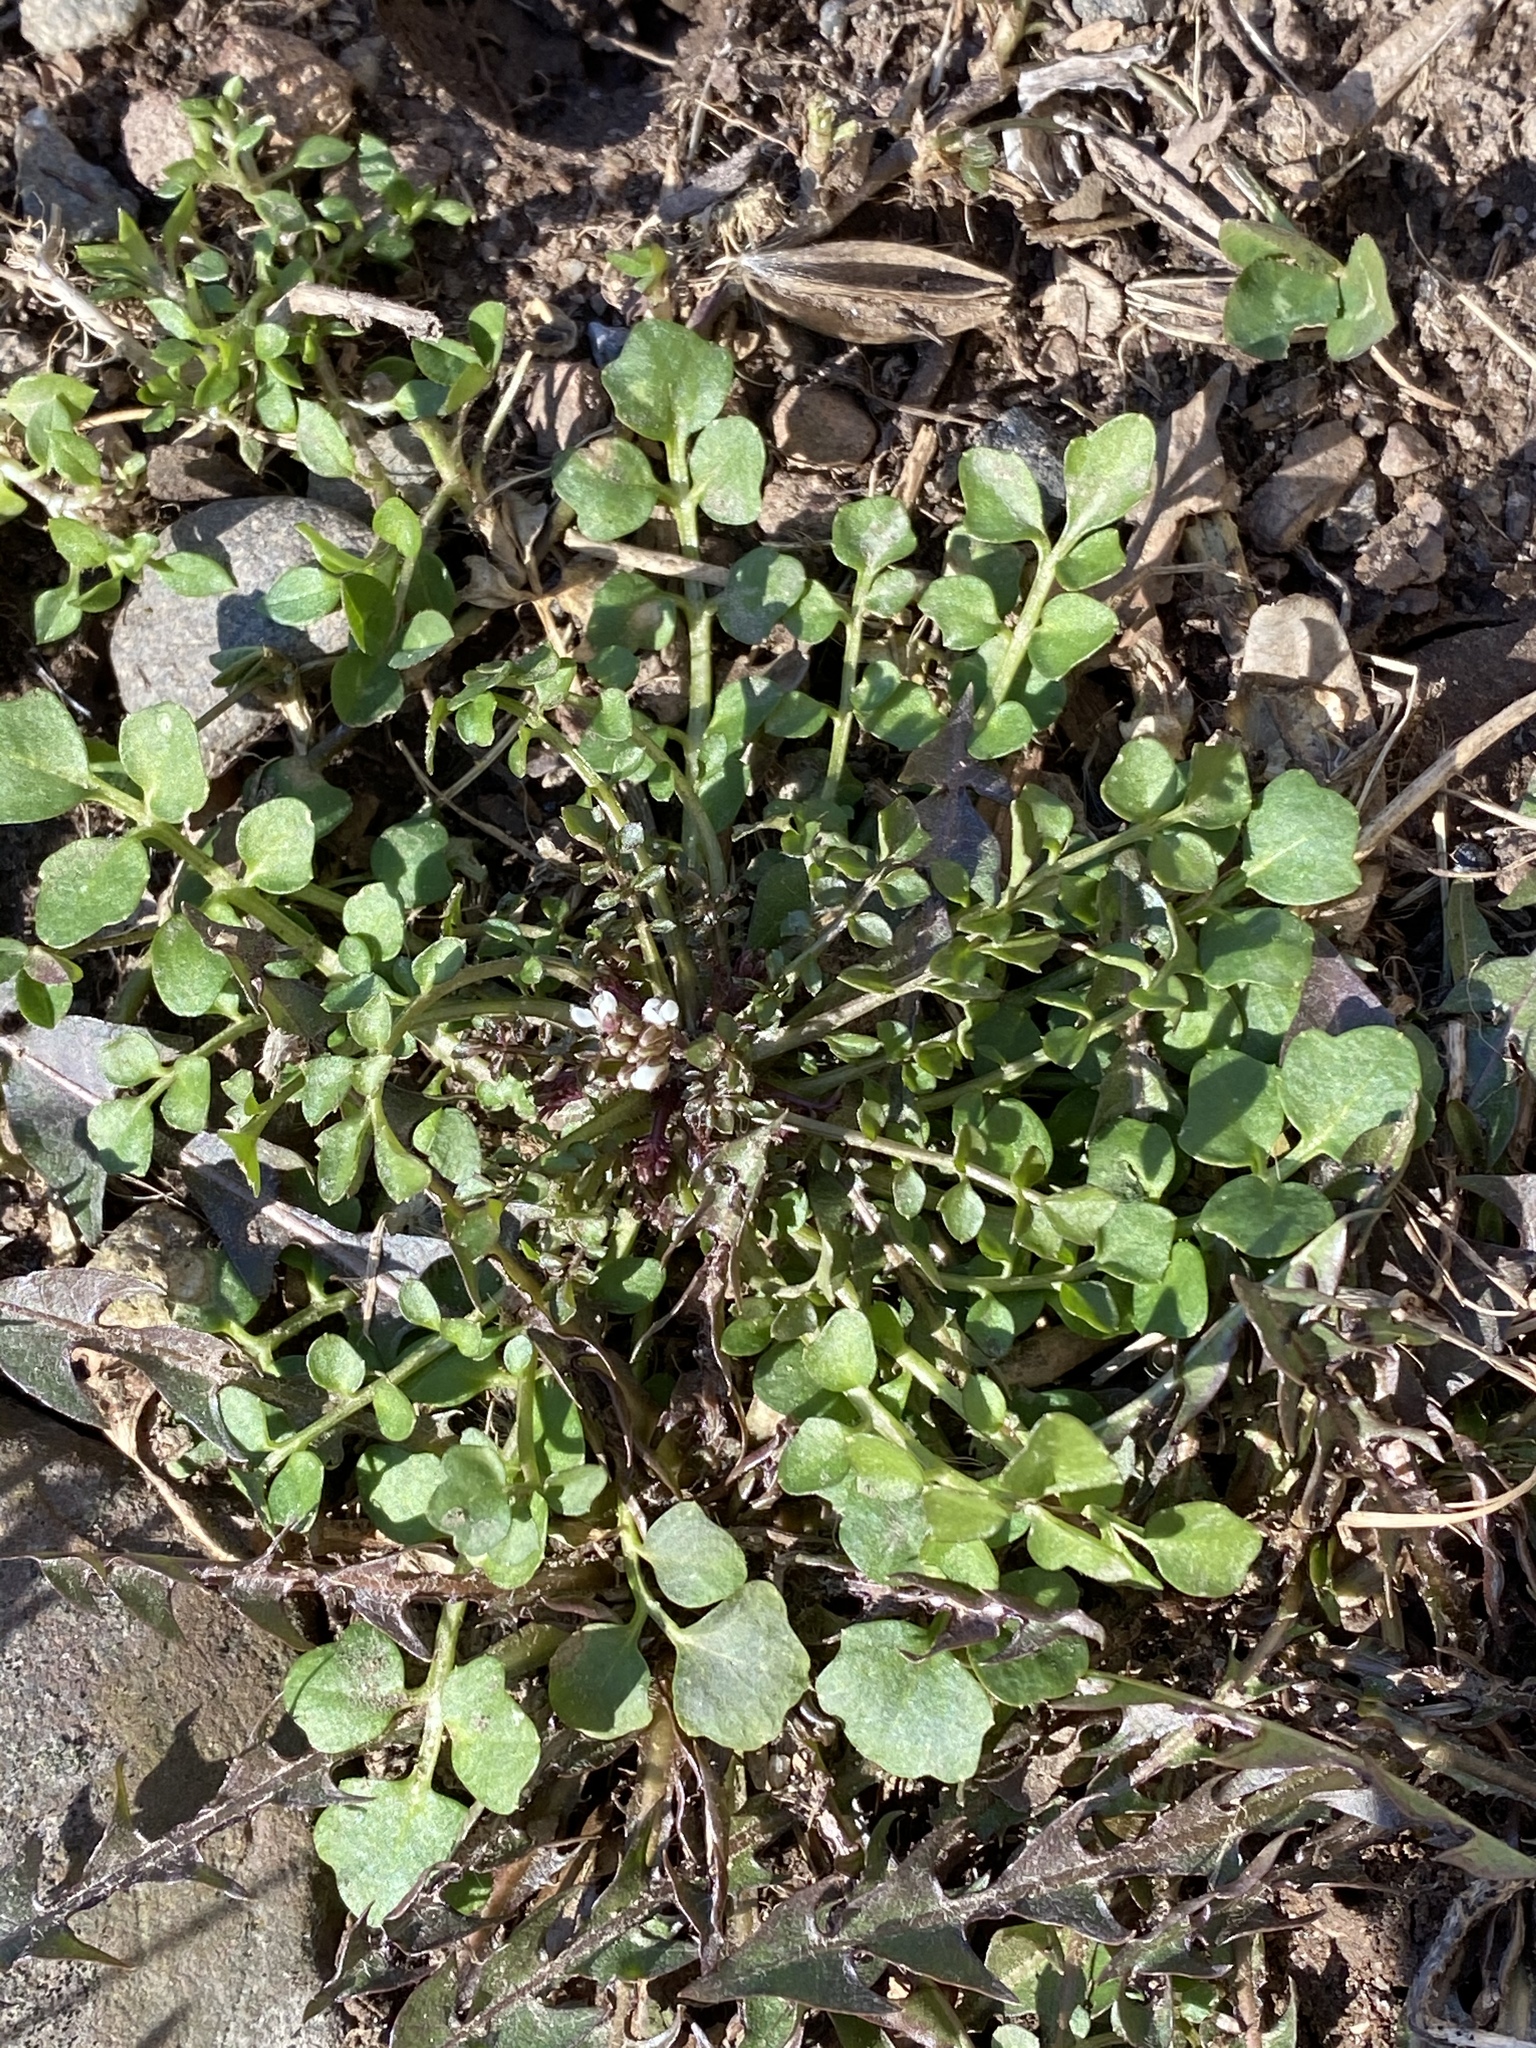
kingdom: Plantae
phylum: Tracheophyta
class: Magnoliopsida
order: Brassicales
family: Brassicaceae
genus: Cardamine
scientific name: Cardamine hirsuta
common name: Hairy bittercress
